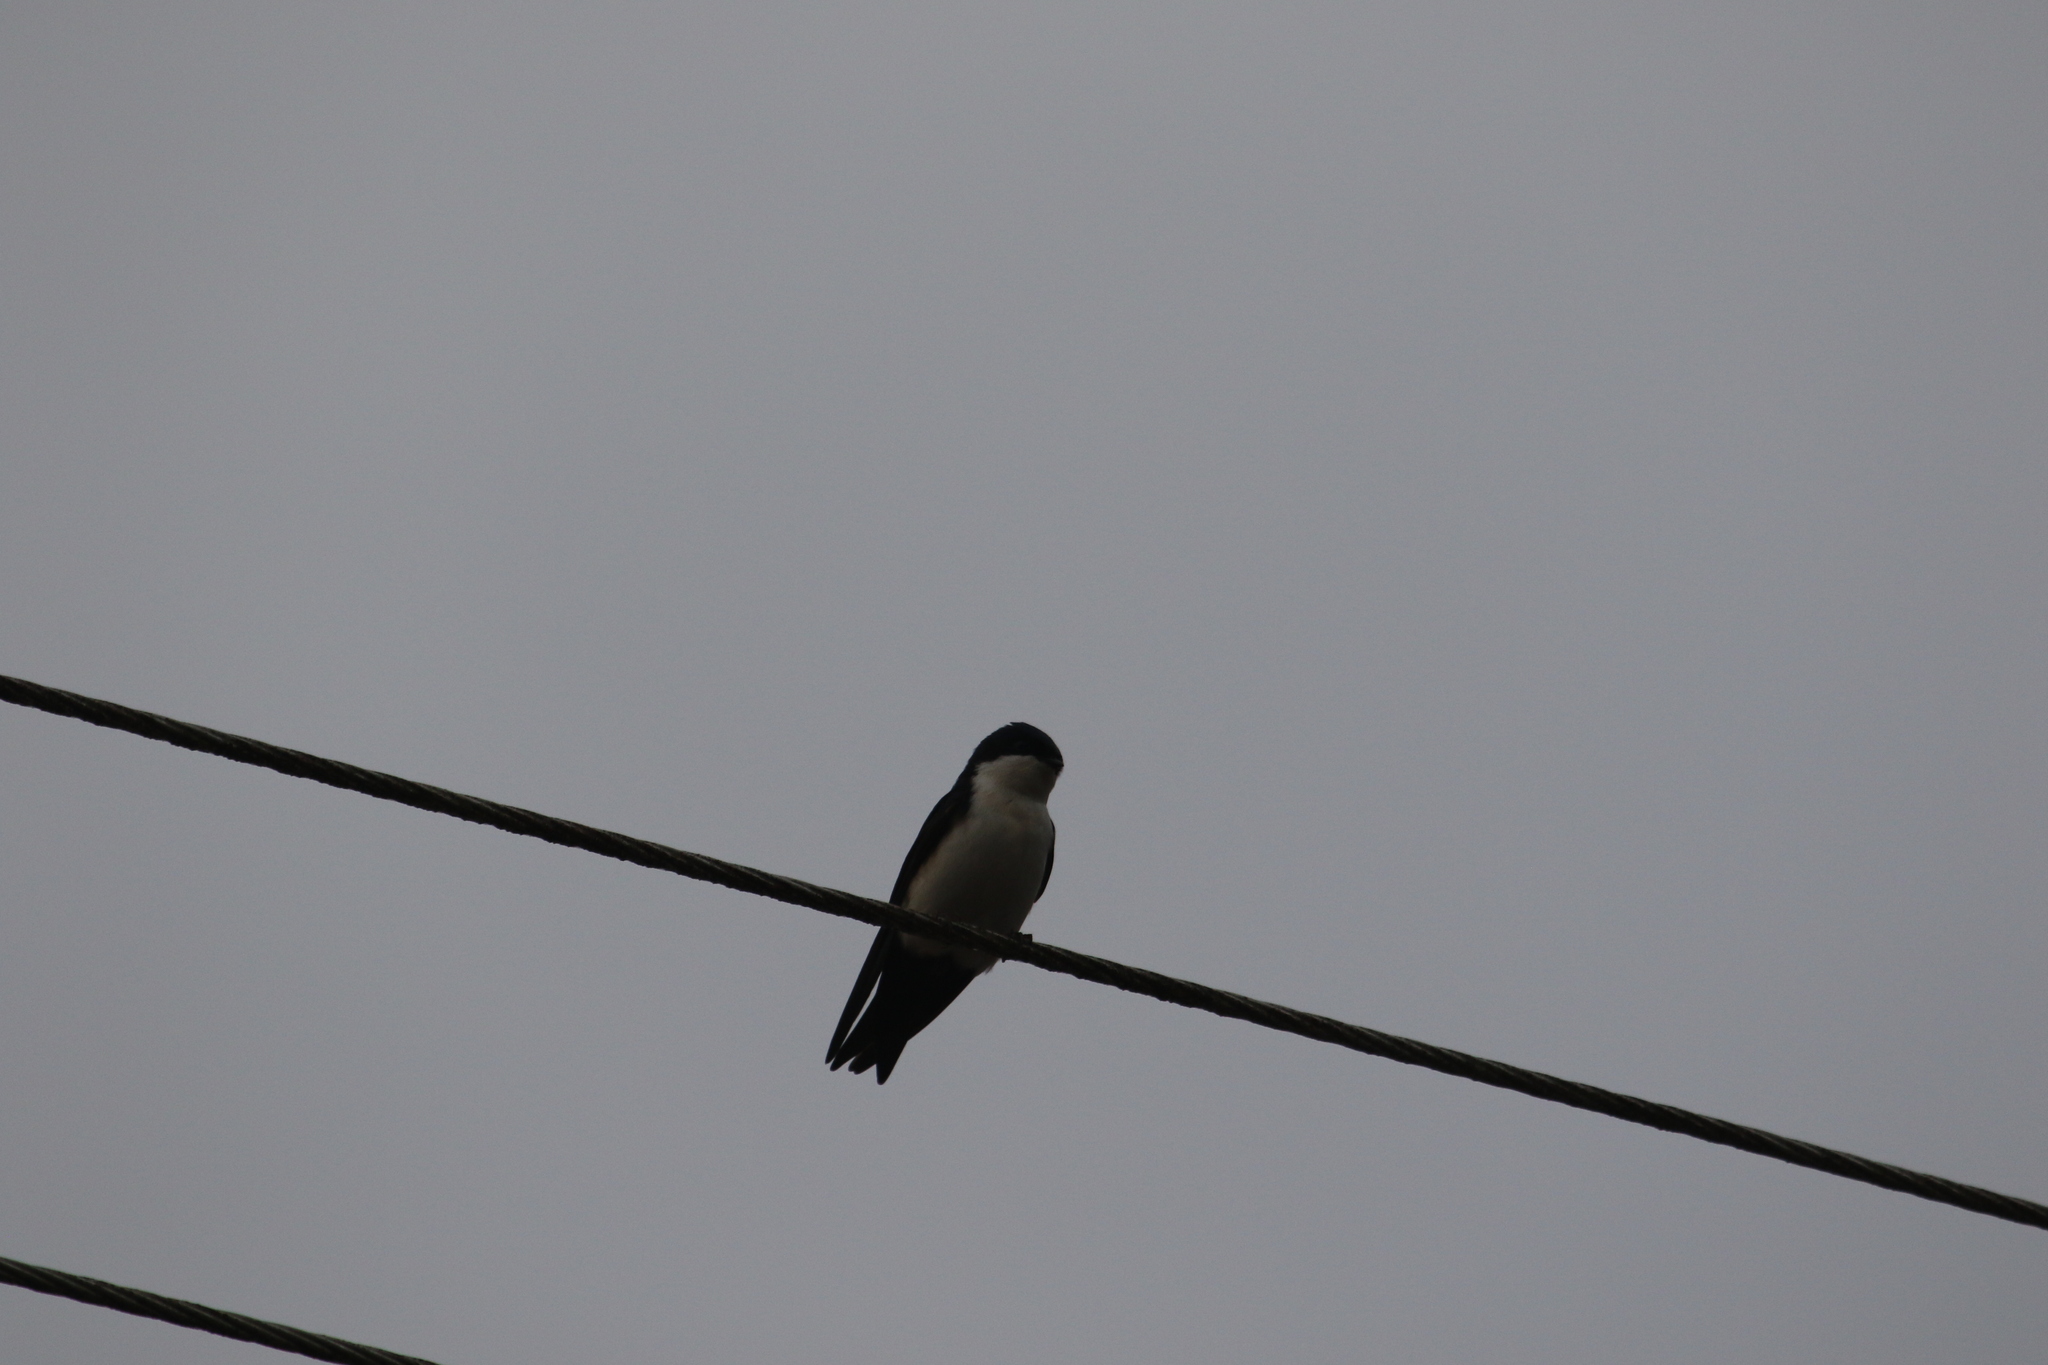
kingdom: Animalia
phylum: Chordata
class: Aves
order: Passeriformes
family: Hirundinidae
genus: Notiochelidon
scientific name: Notiochelidon cyanoleuca
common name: Blue-and-white swallow
